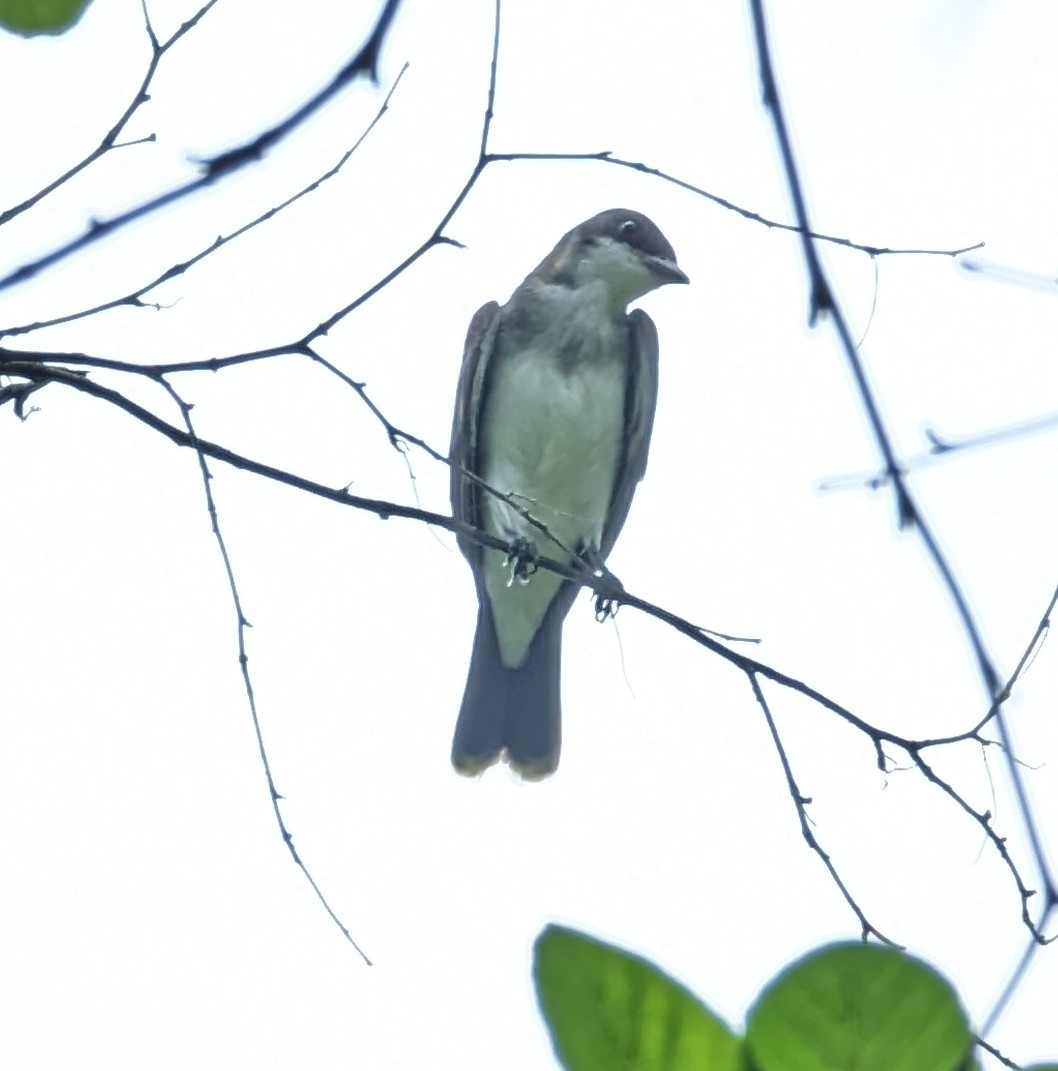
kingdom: Animalia
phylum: Chordata
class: Aves
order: Passeriformes
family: Tyrannidae
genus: Tyrannus
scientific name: Tyrannus tyrannus
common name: Eastern kingbird
